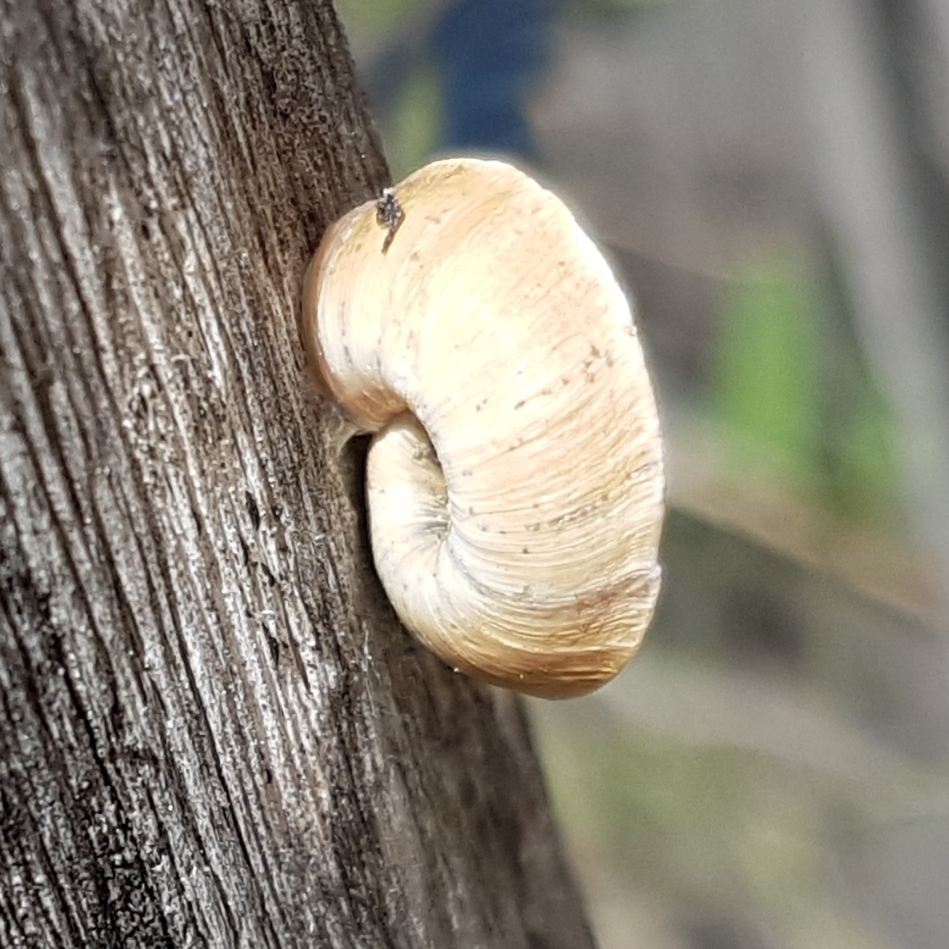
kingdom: Animalia
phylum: Mollusca
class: Gastropoda
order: Stylommatophora
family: Geomitridae
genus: Xerosecta
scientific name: Xerosecta explanata
